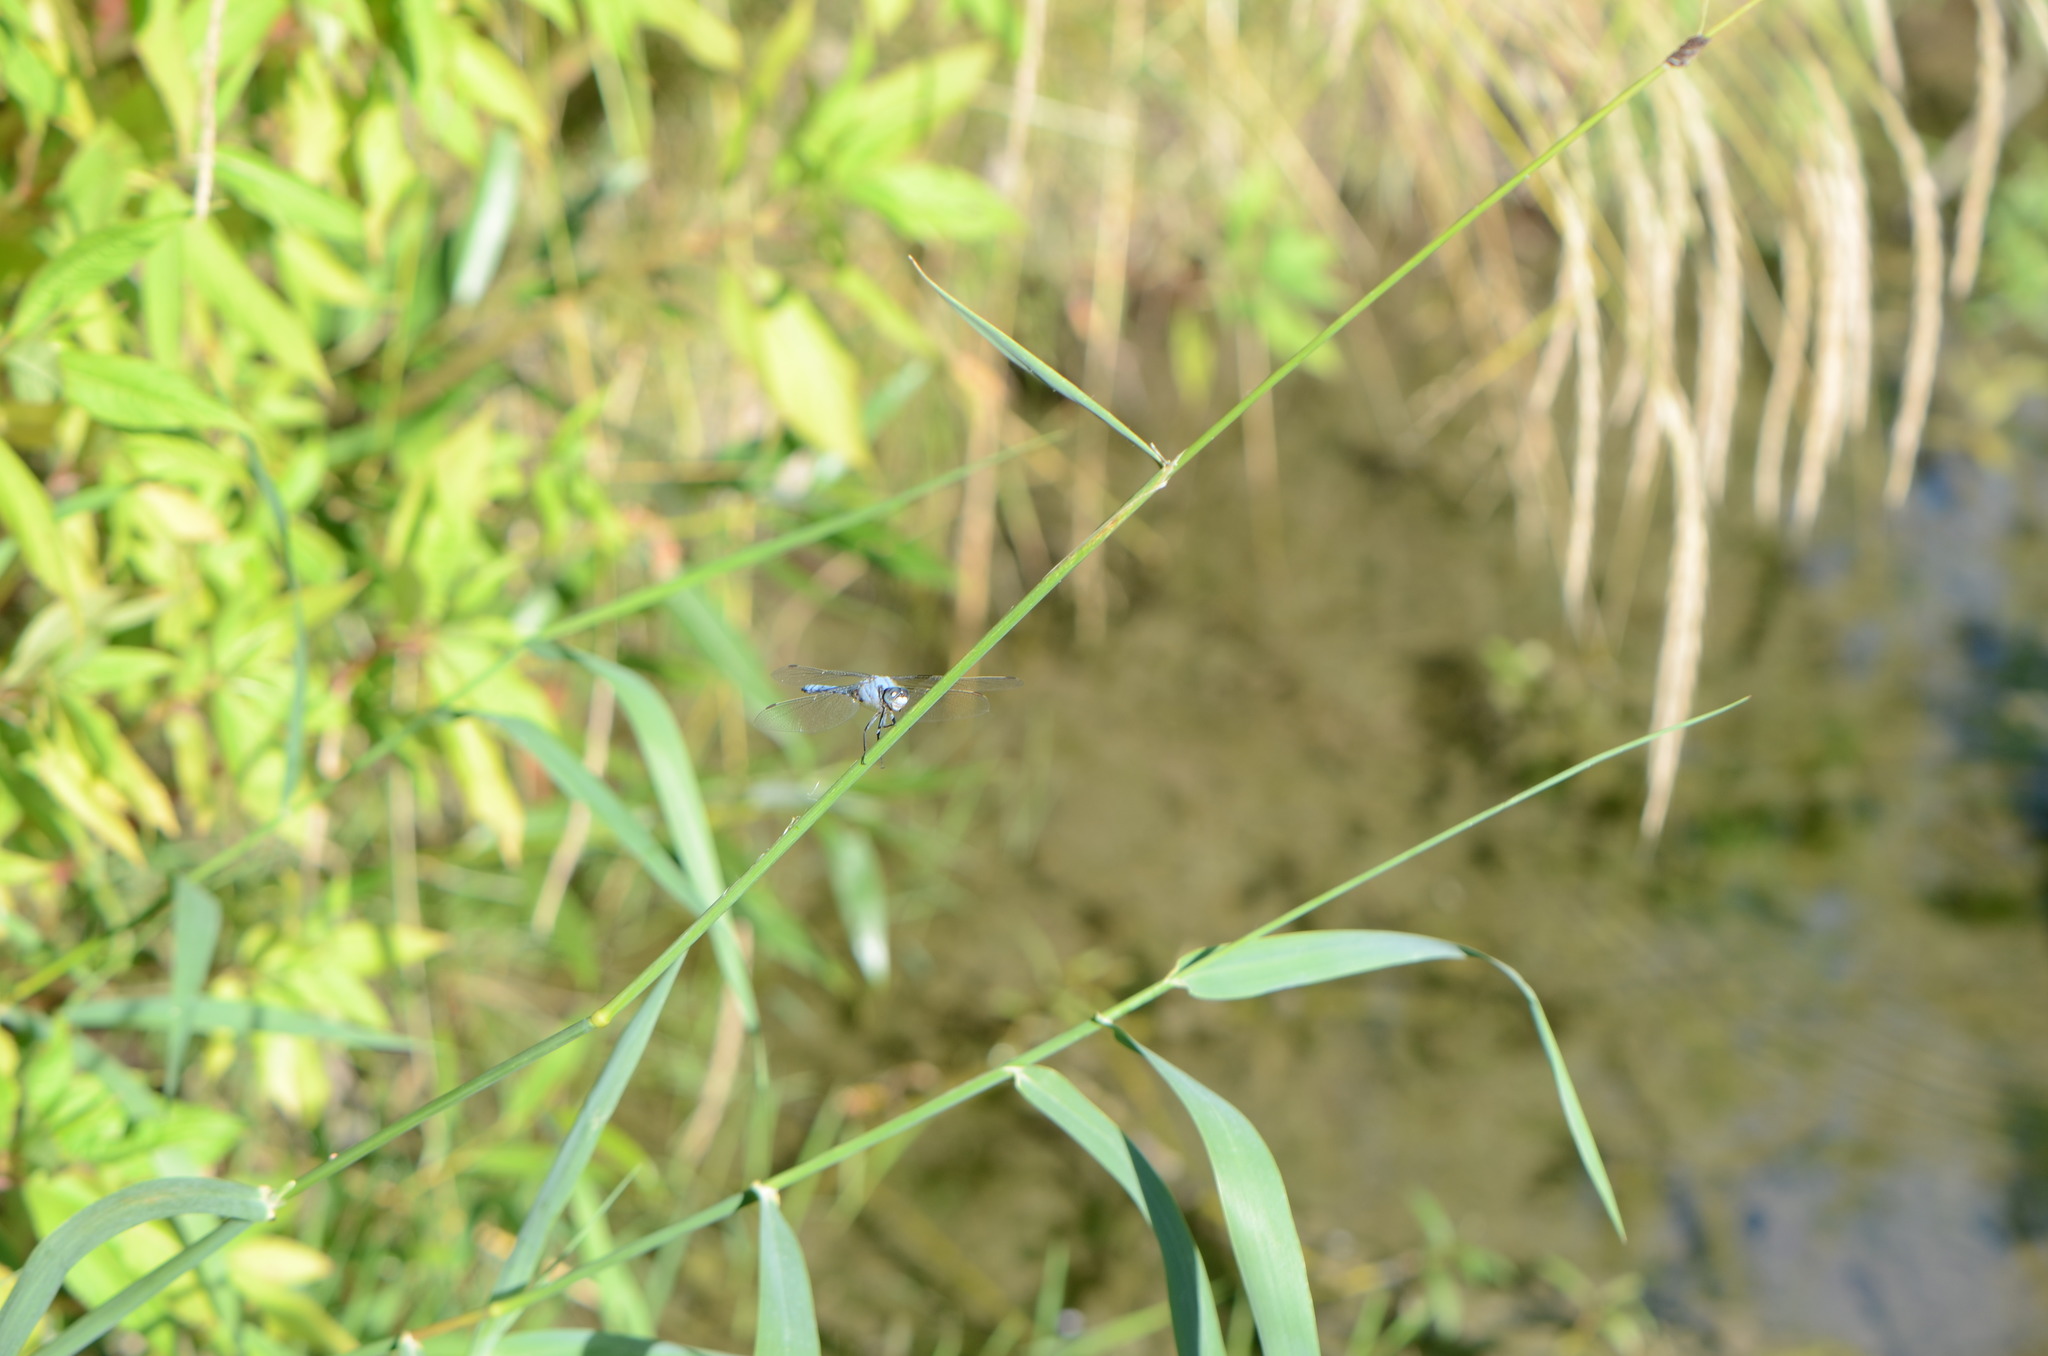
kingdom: Animalia
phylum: Arthropoda
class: Insecta
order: Odonata
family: Libellulidae
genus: Orthetrum
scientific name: Orthetrum brunneum
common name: Southern skimmer
